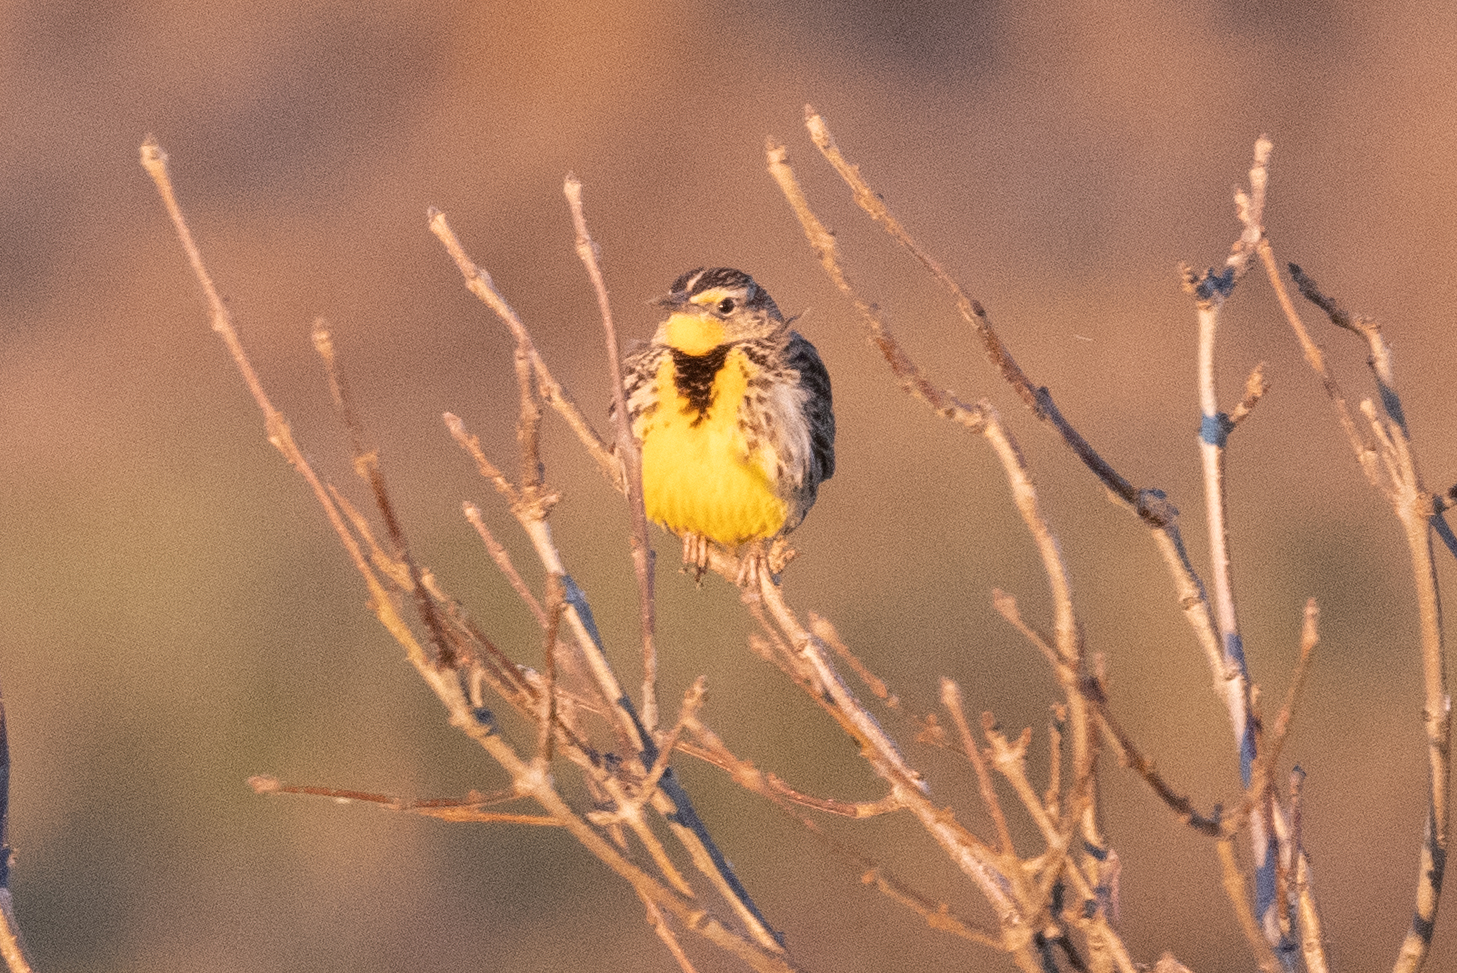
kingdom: Animalia
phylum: Chordata
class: Aves
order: Passeriformes
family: Icteridae
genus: Sturnella
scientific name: Sturnella neglecta
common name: Western meadowlark
